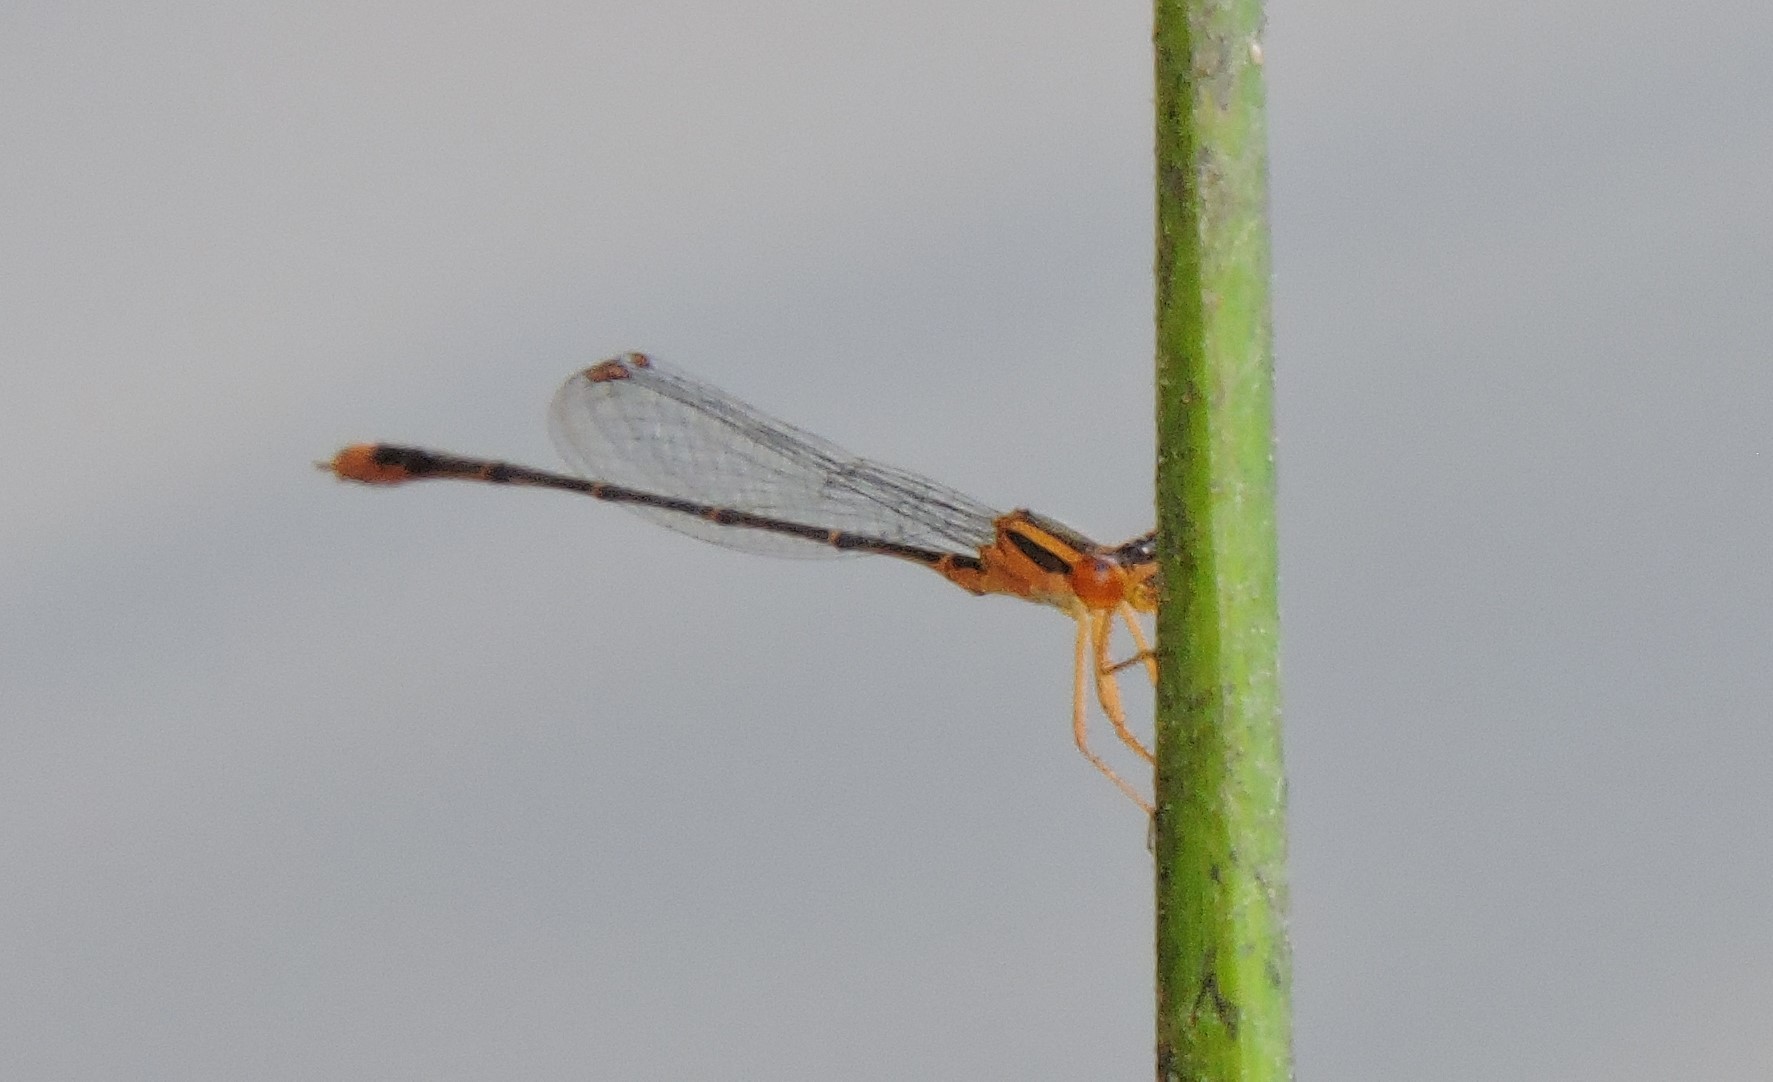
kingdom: Animalia
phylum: Arthropoda
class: Insecta
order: Odonata
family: Coenagrionidae
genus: Enallagma
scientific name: Enallagma signatum
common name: Orange bluet
